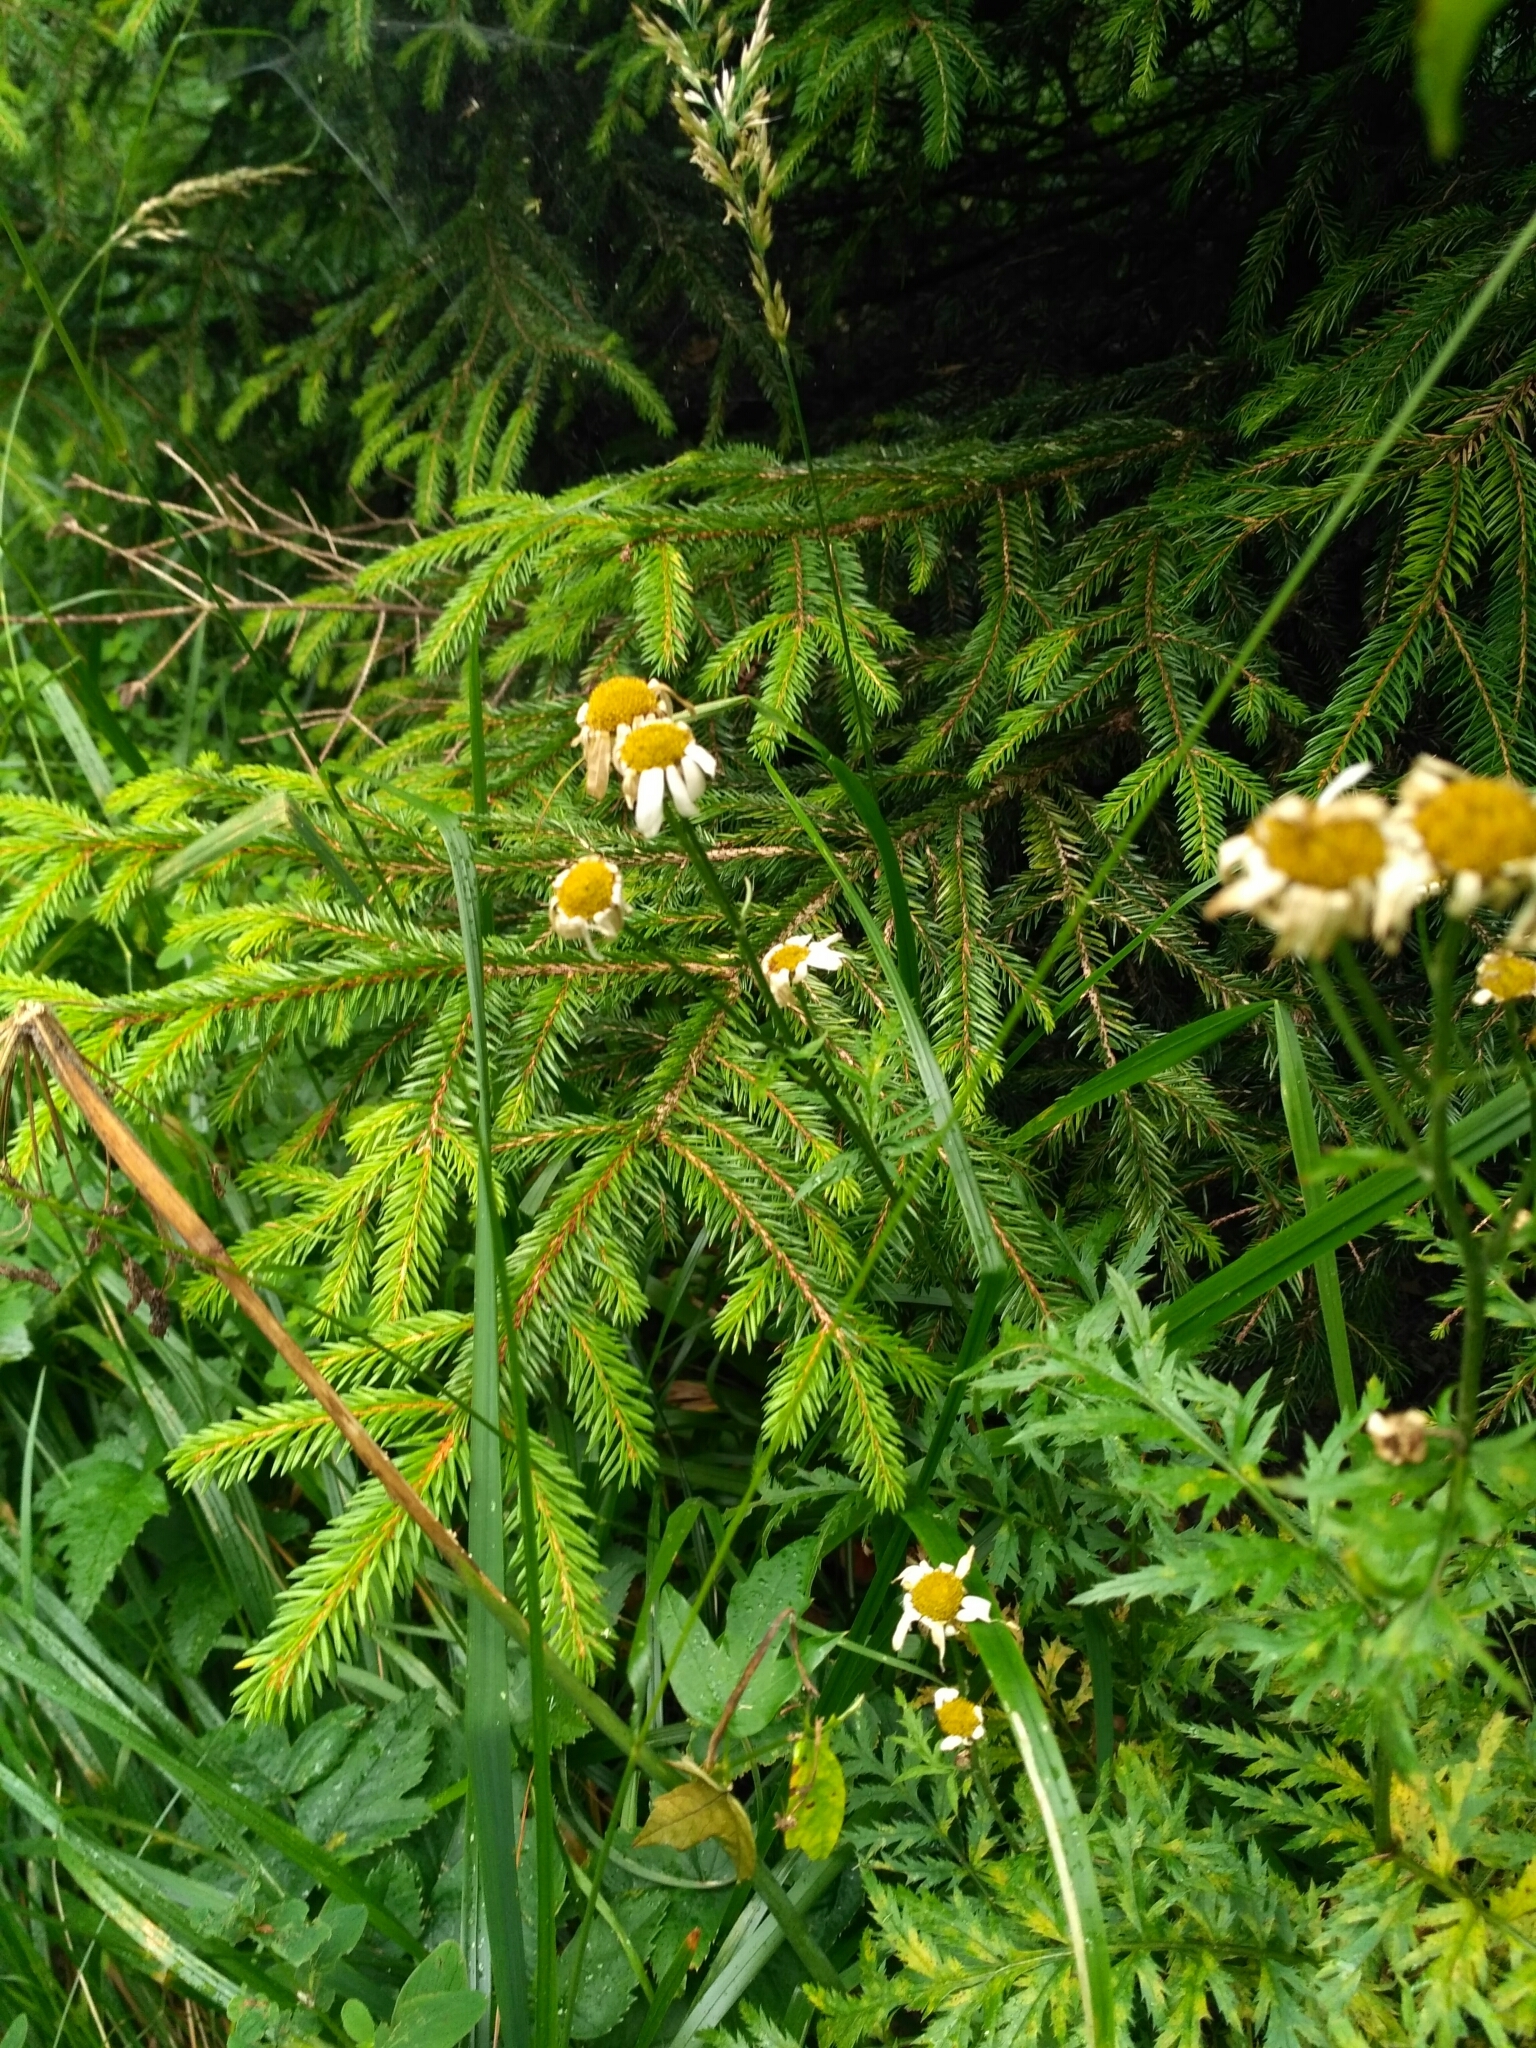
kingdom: Plantae
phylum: Tracheophyta
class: Magnoliopsida
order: Asterales
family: Asteraceae
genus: Tanacetum
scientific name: Tanacetum corymbosum
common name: Scentless feverfew
